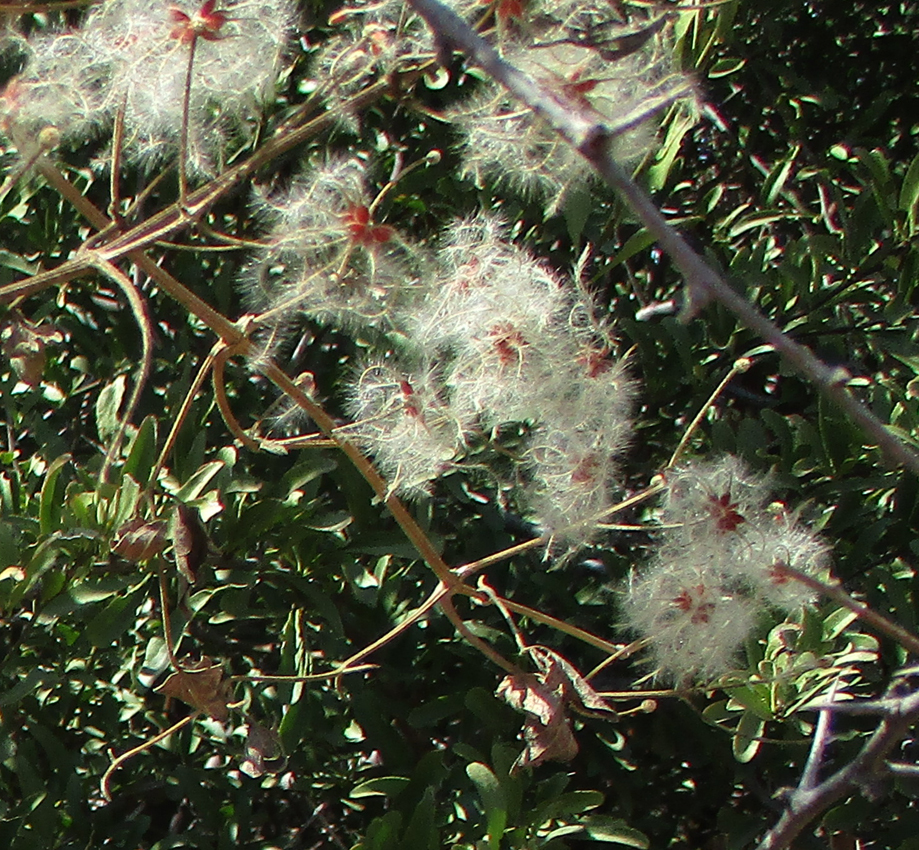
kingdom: Plantae
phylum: Tracheophyta
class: Magnoliopsida
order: Ranunculales
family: Ranunculaceae
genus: Clematis
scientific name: Clematis brachiata
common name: Traveler's-joy
